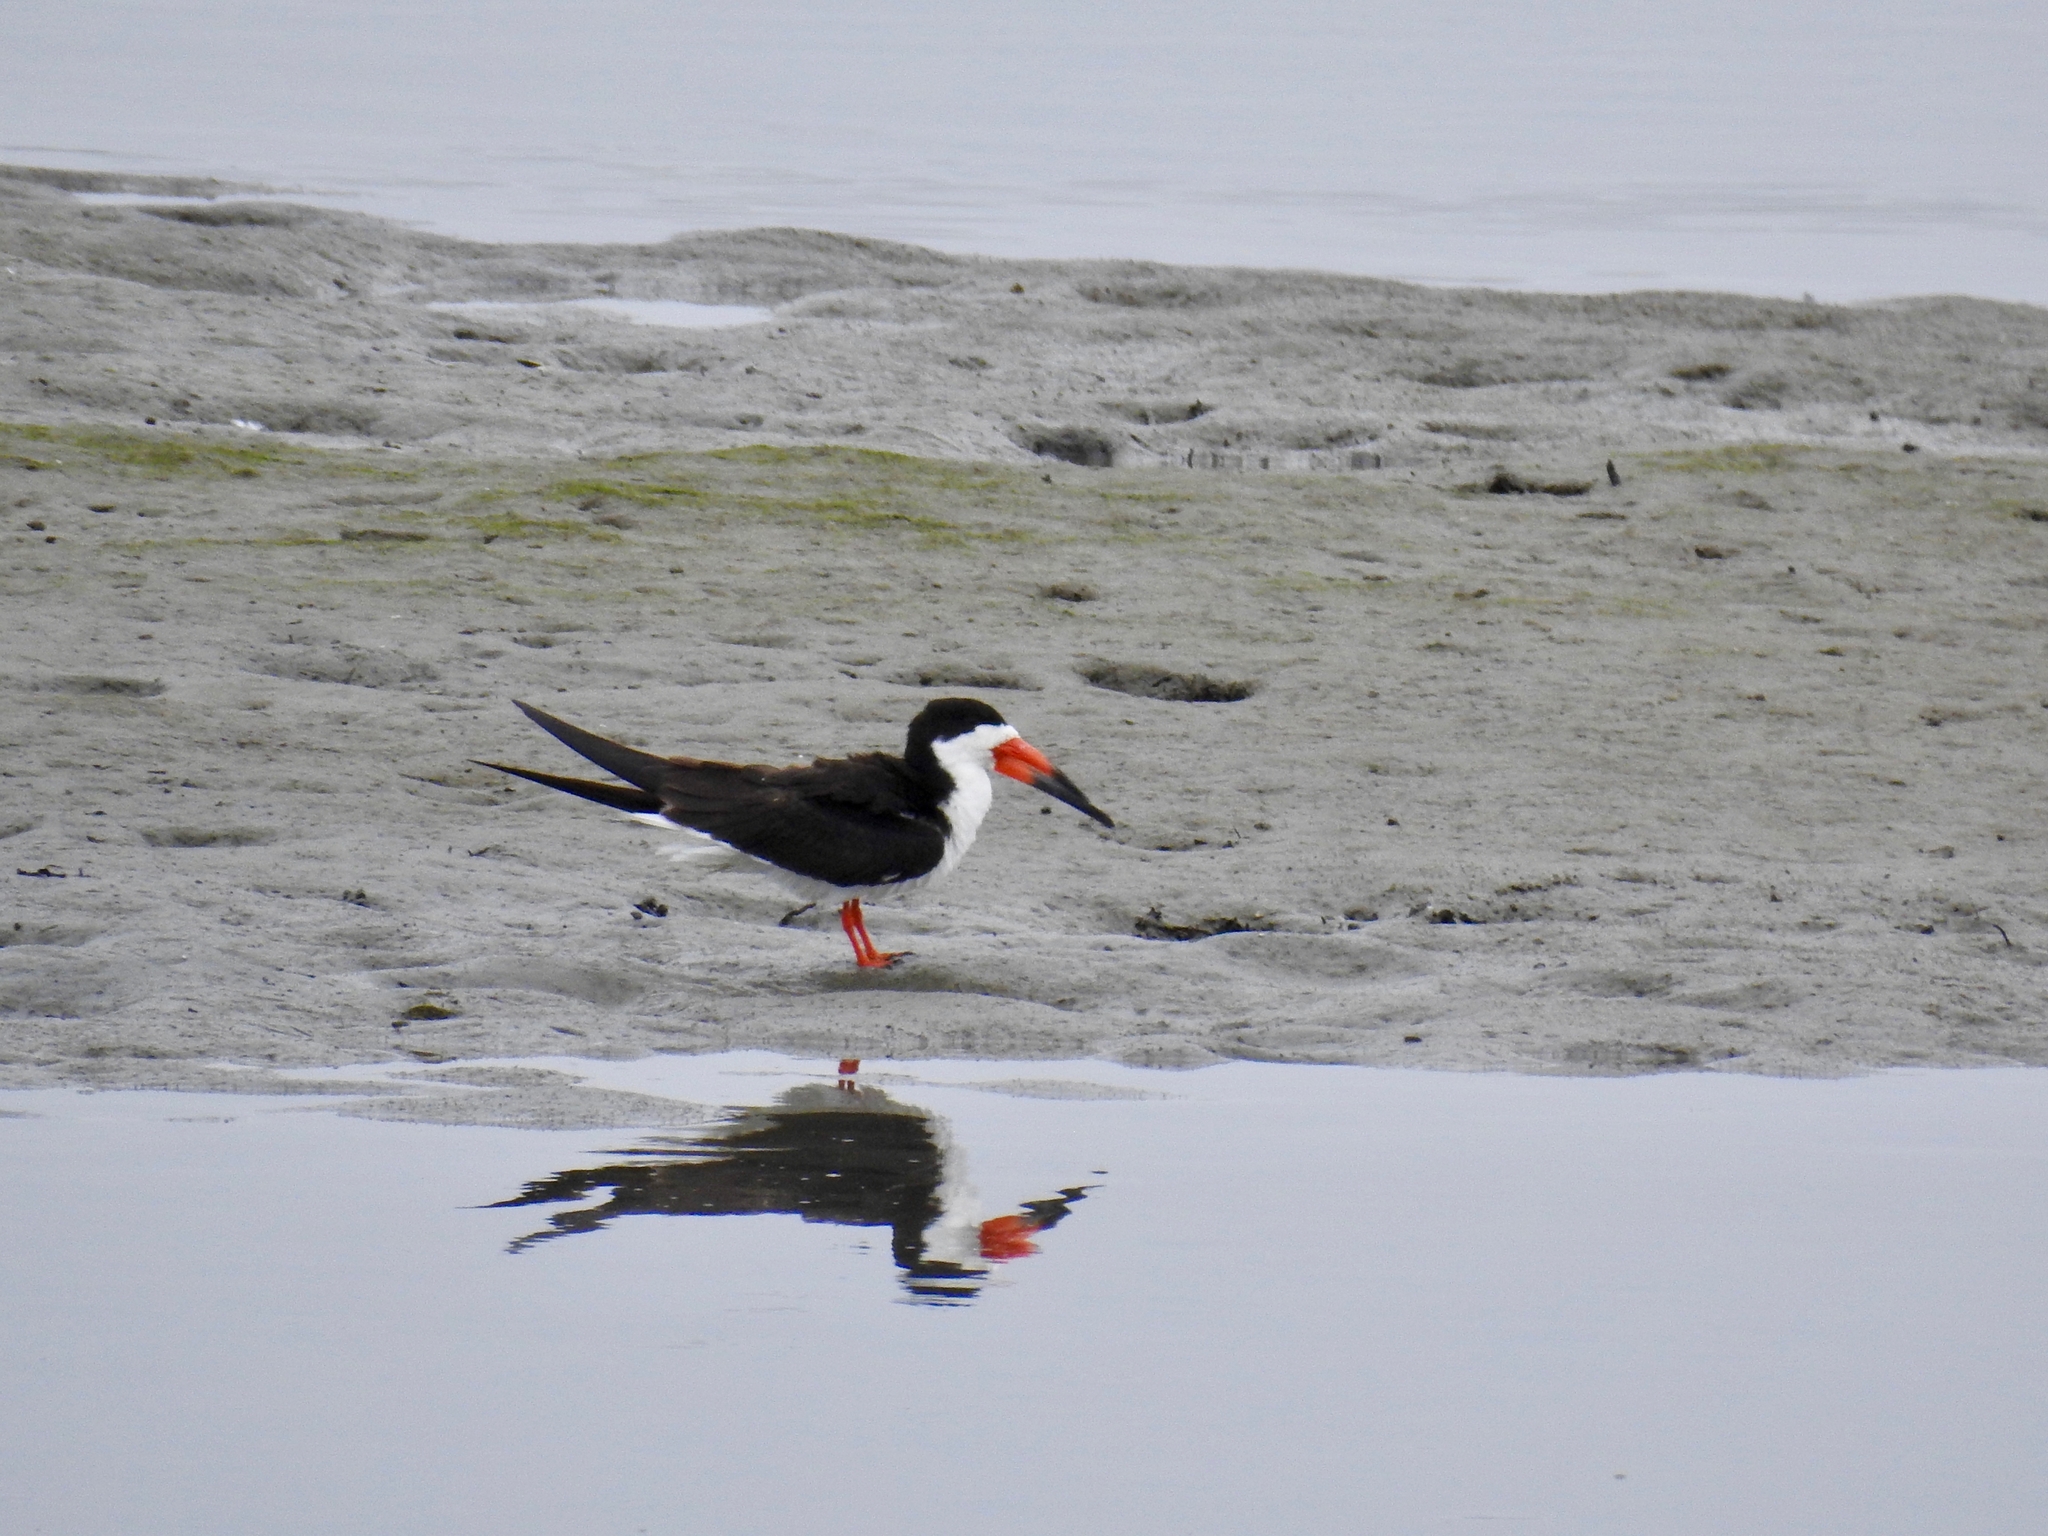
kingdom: Animalia
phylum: Chordata
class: Aves
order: Charadriiformes
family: Laridae
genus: Rynchops
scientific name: Rynchops niger
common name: Black skimmer
